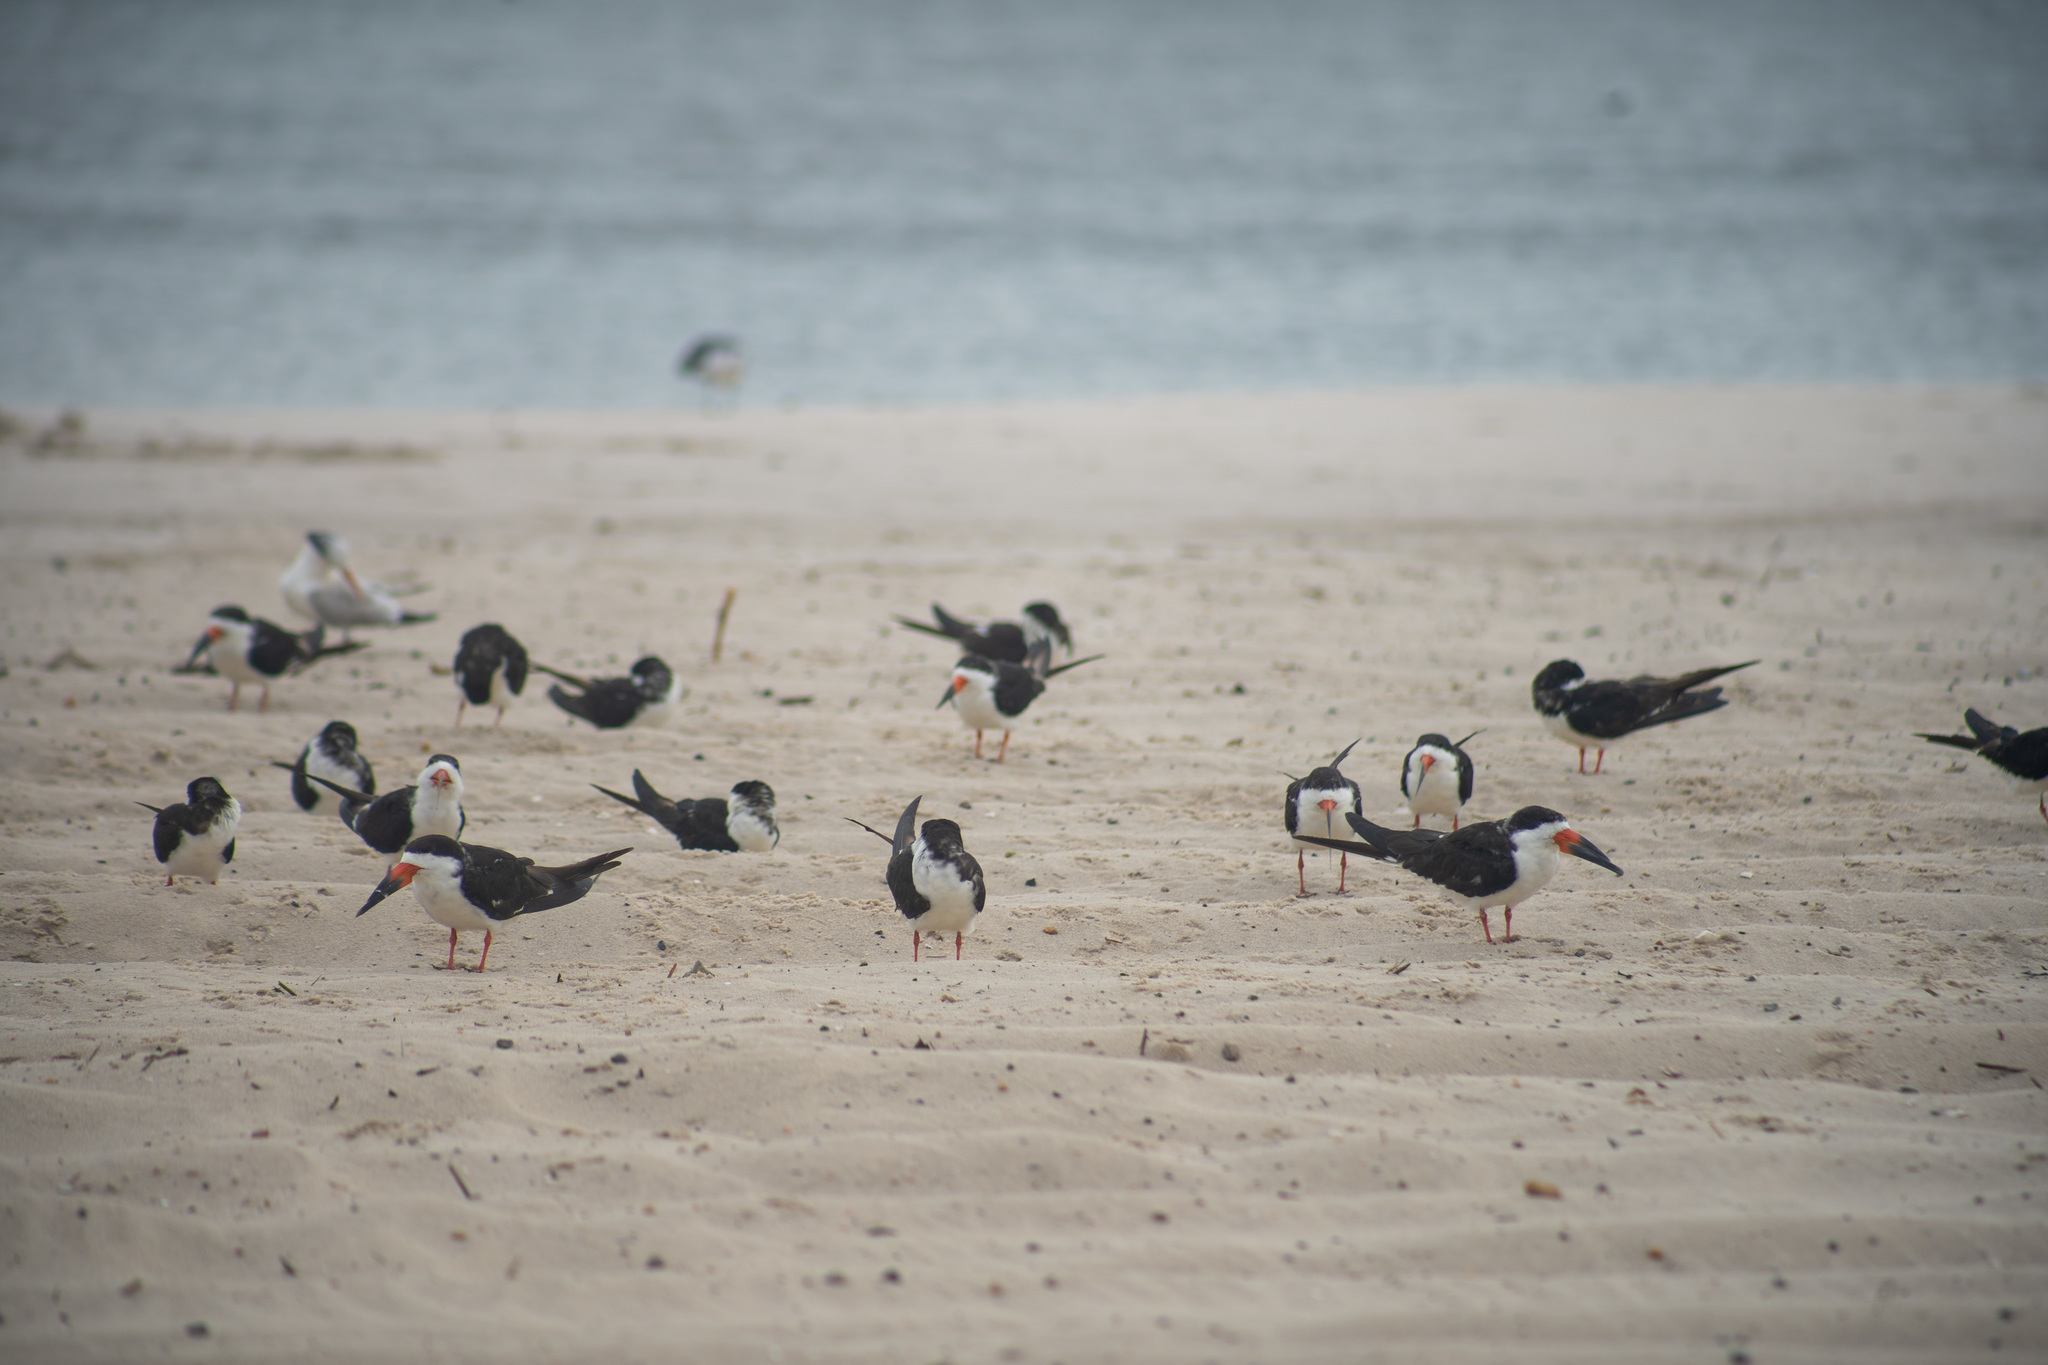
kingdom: Animalia
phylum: Chordata
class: Aves
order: Charadriiformes
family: Laridae
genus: Rynchops
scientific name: Rynchops niger
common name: Black skimmer
